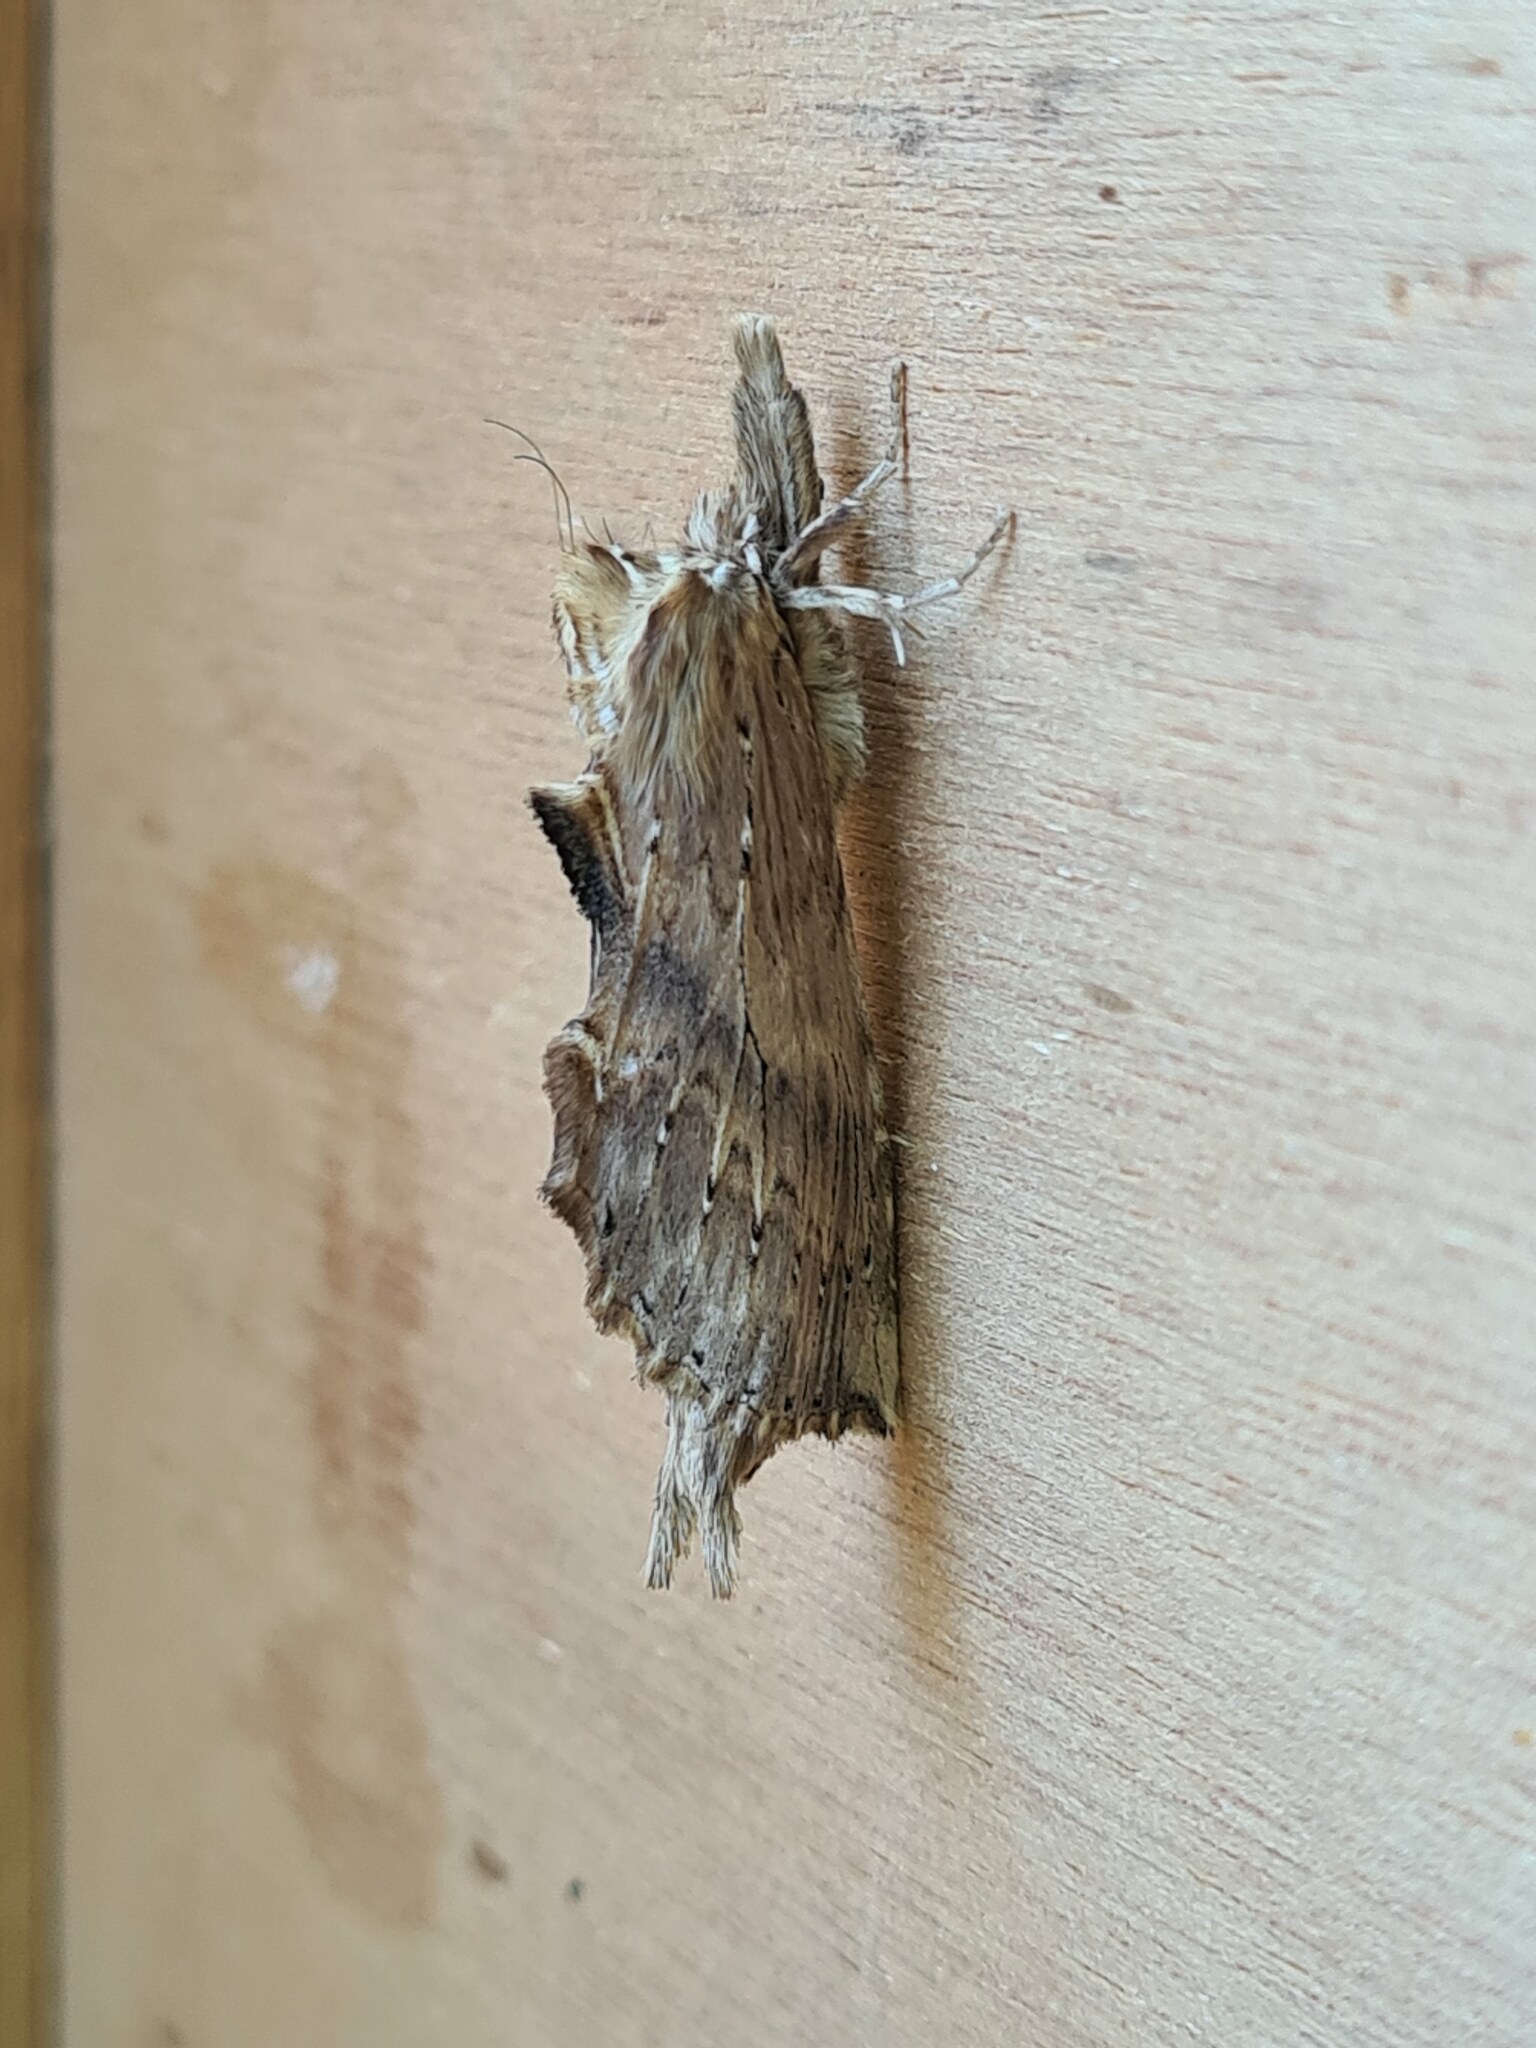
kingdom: Animalia
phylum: Arthropoda
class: Insecta
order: Lepidoptera
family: Notodontidae
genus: Pterostoma
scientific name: Pterostoma palpina
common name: Pale prominent
